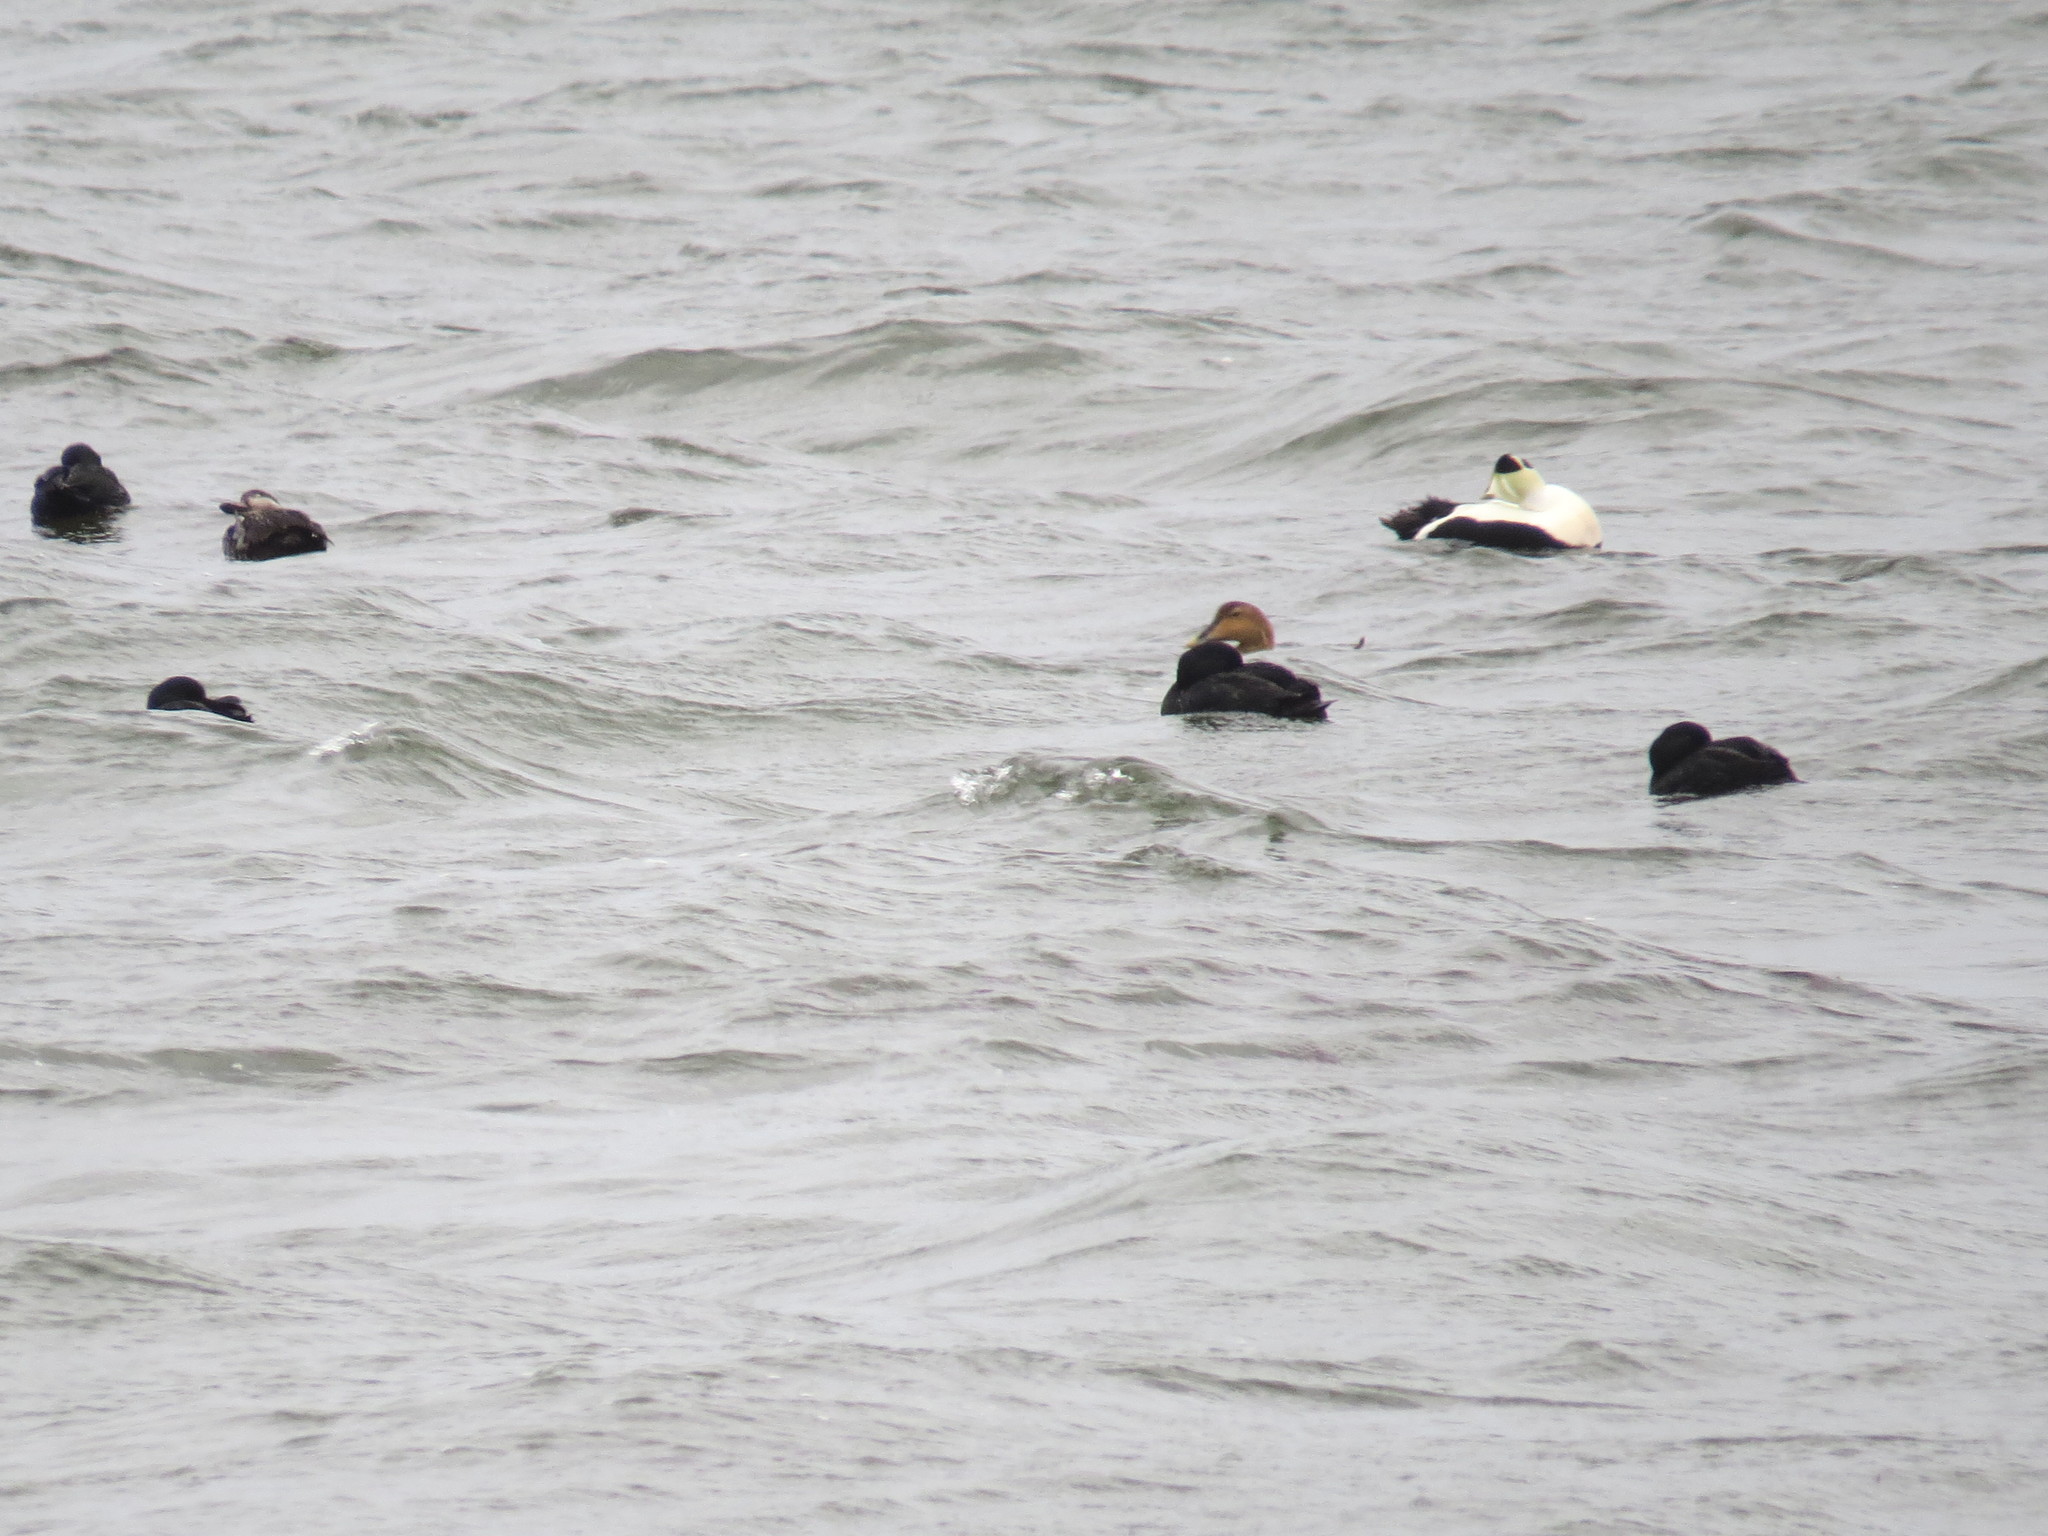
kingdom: Animalia
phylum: Chordata
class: Aves
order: Anseriformes
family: Anatidae
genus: Somateria
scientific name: Somateria mollissima
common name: Common eider
